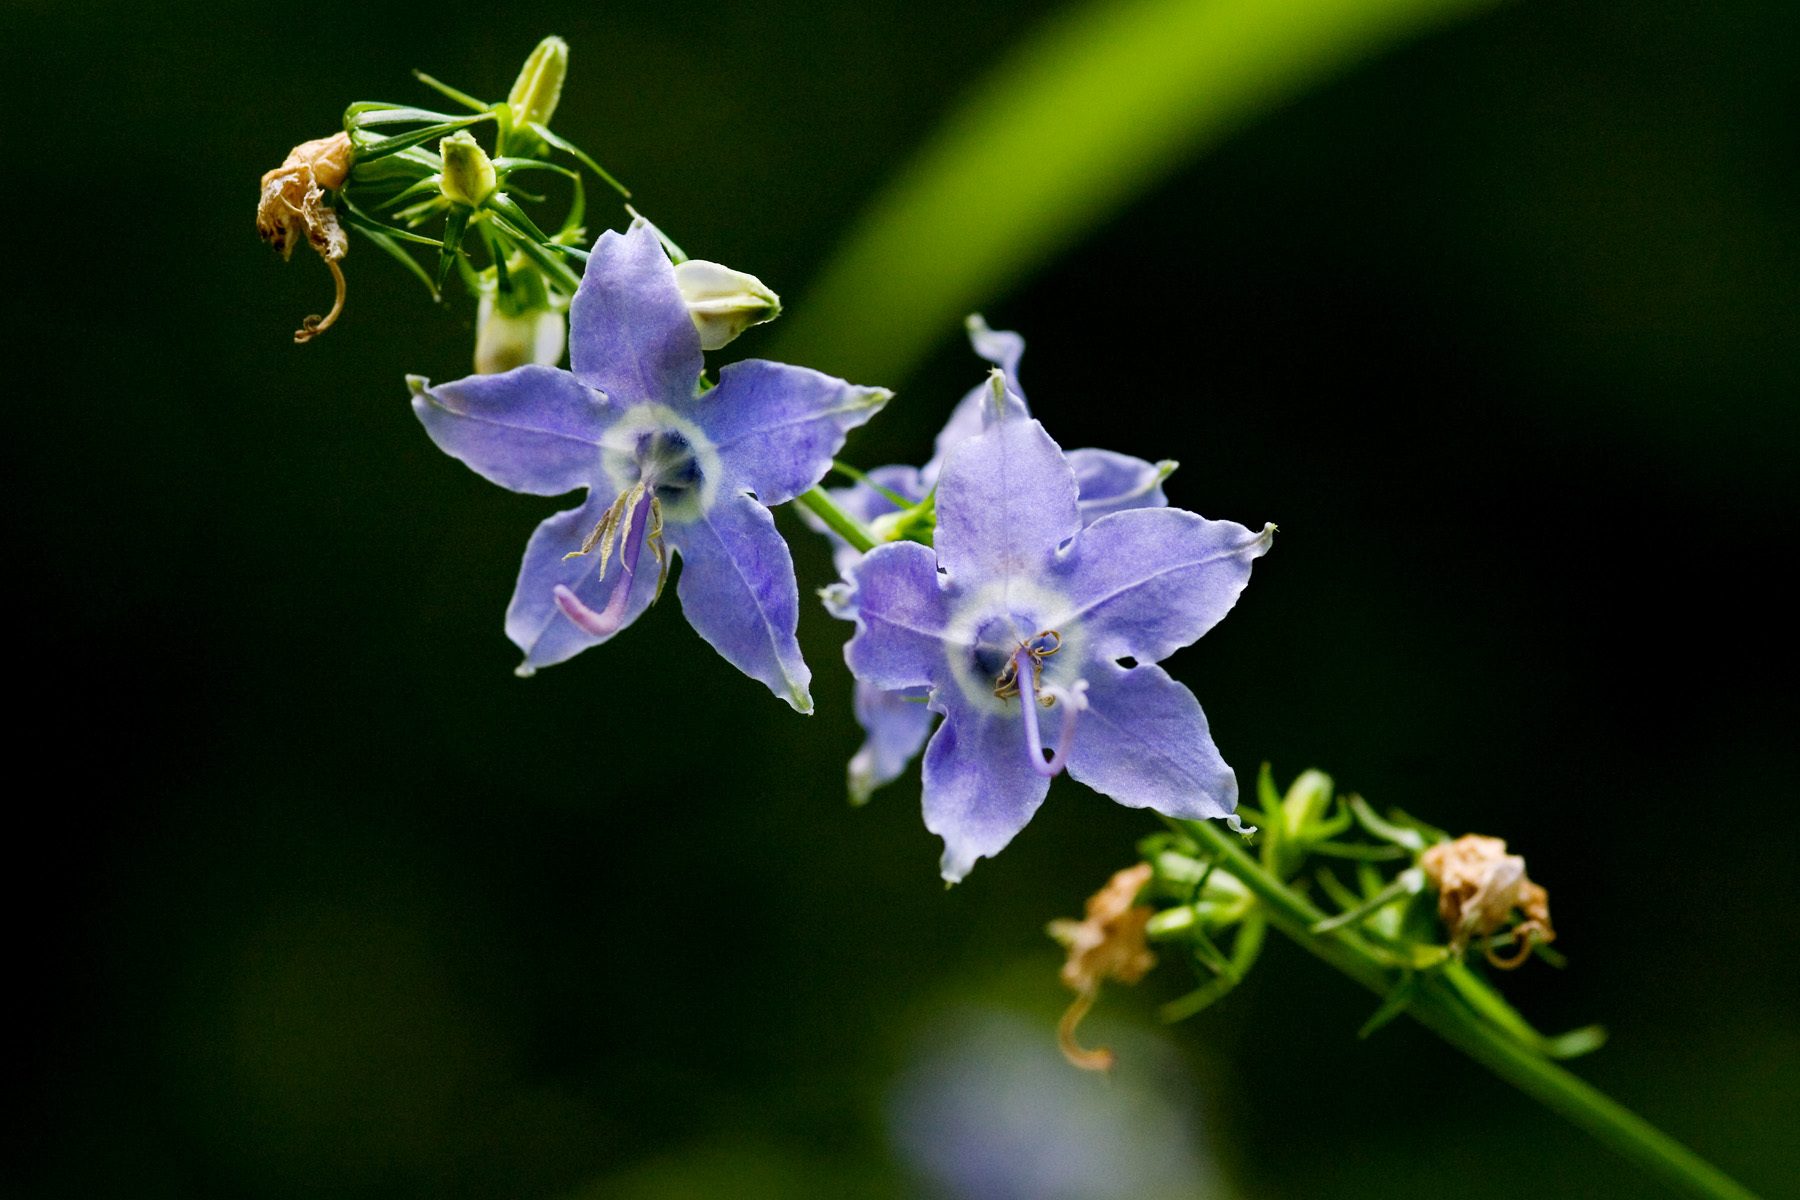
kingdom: Plantae
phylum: Tracheophyta
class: Magnoliopsida
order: Asterales
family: Campanulaceae
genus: Campanulastrum
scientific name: Campanulastrum americanum
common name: American bellflower
